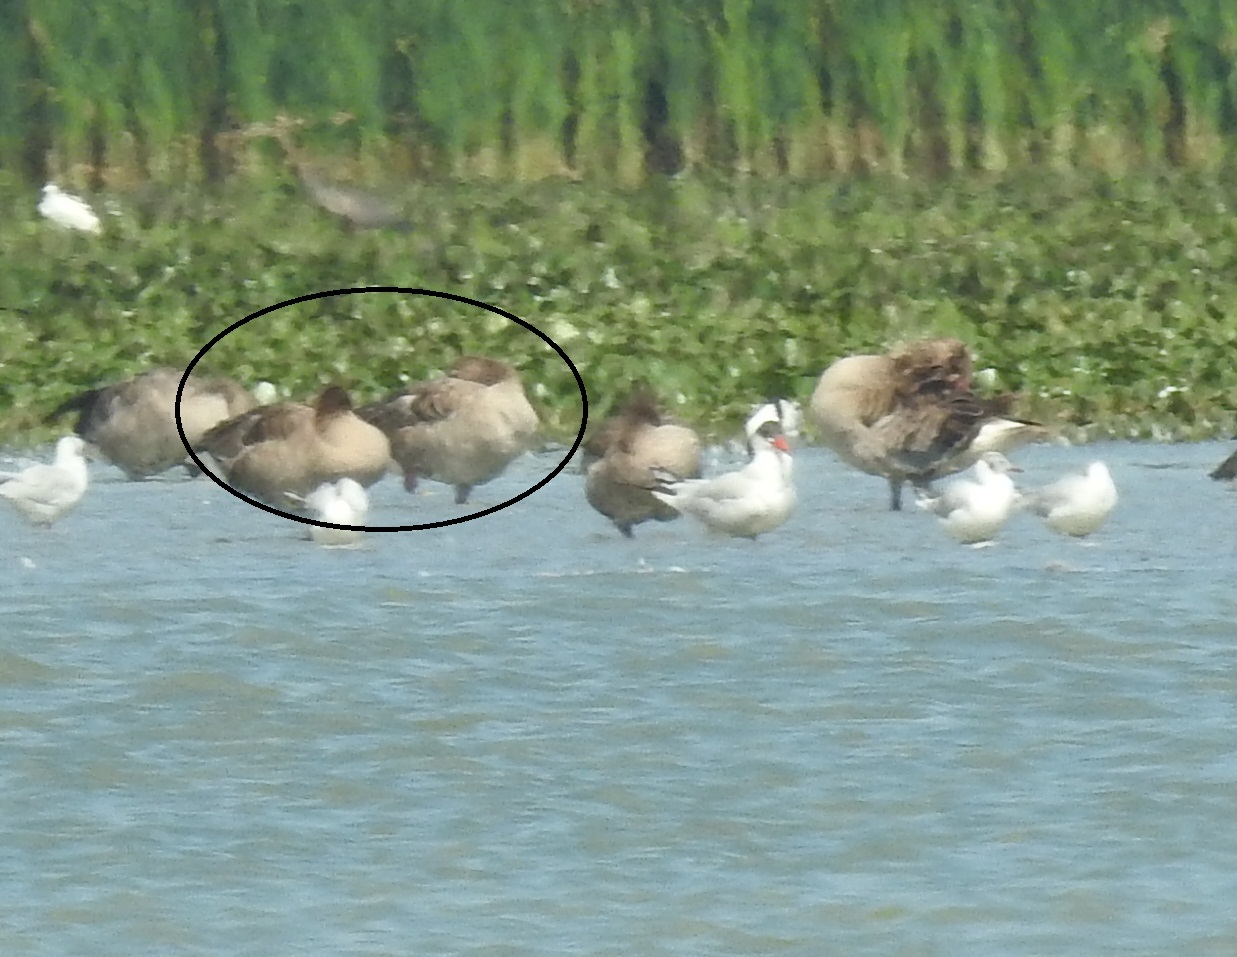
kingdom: Animalia
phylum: Chordata
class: Aves
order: Anseriformes
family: Anatidae
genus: Anser
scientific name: Anser anser
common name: Greylag goose
